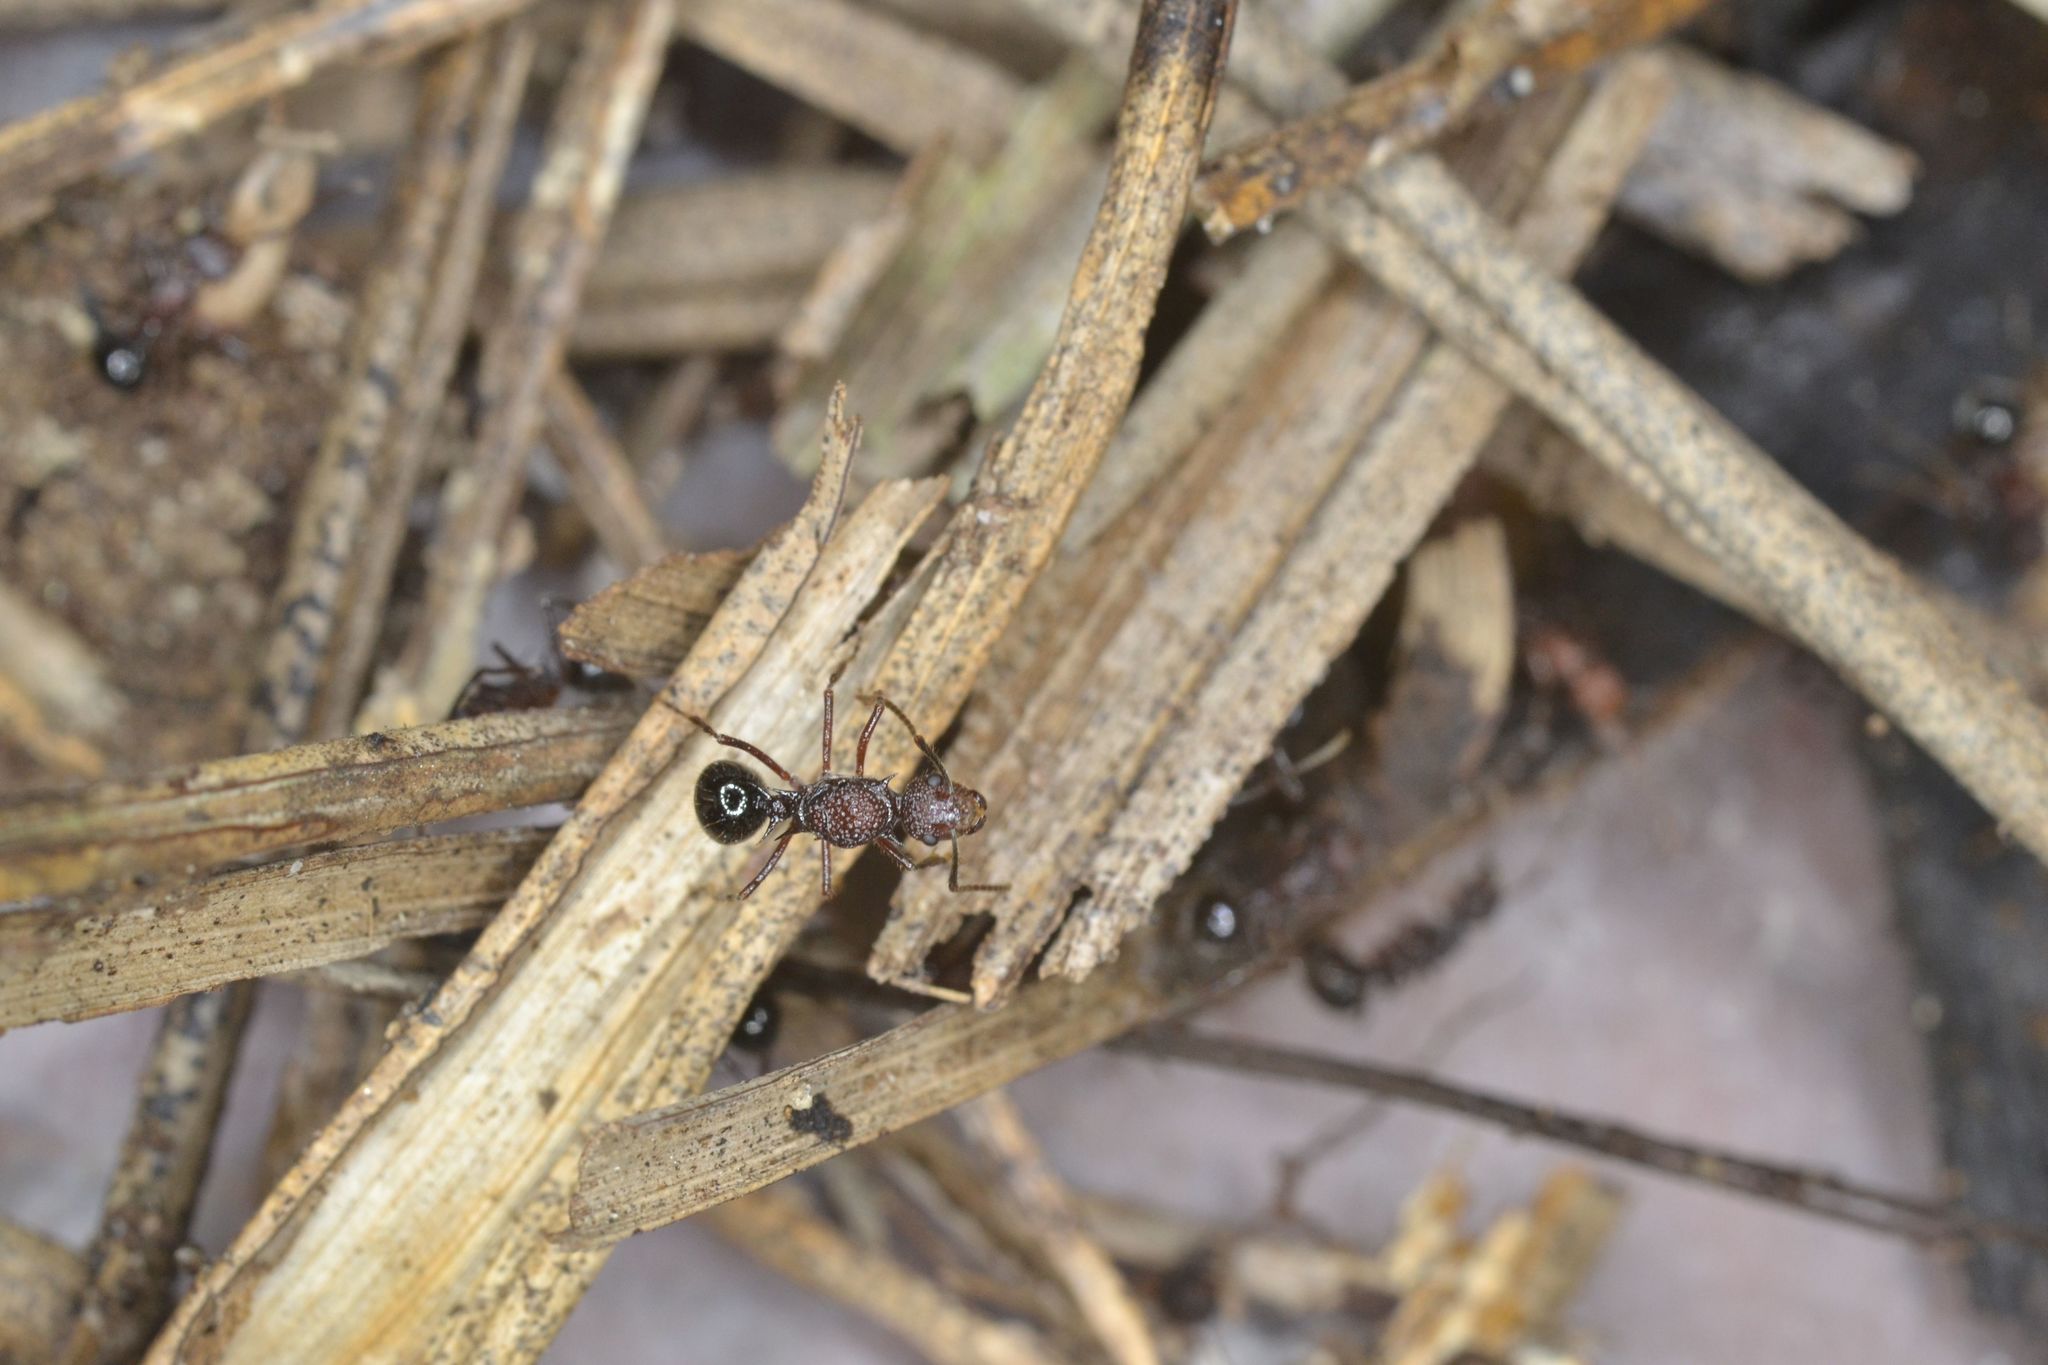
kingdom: Animalia
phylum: Arthropoda
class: Insecta
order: Hymenoptera
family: Formicidae
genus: Polyrhachis
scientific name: Polyrhachis rufipes
